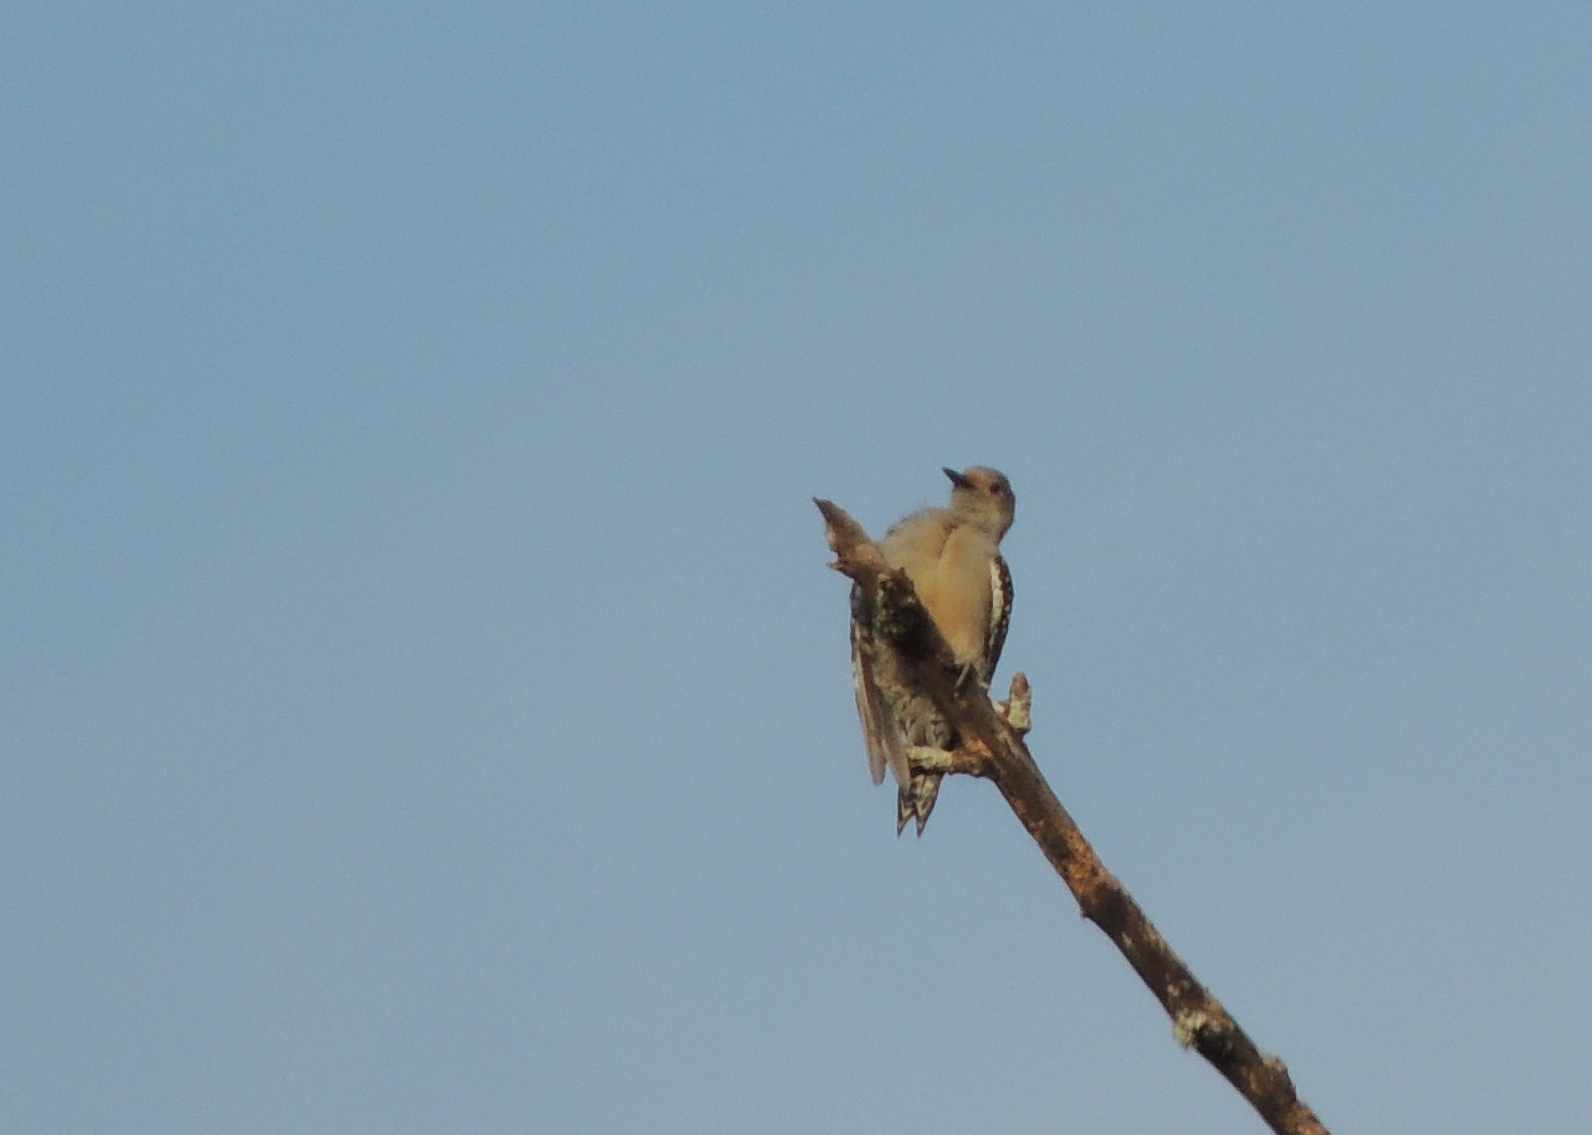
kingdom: Animalia
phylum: Chordata
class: Aves
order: Piciformes
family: Picidae
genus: Melanerpes
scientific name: Melanerpes carolinus
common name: Red-bellied woodpecker
